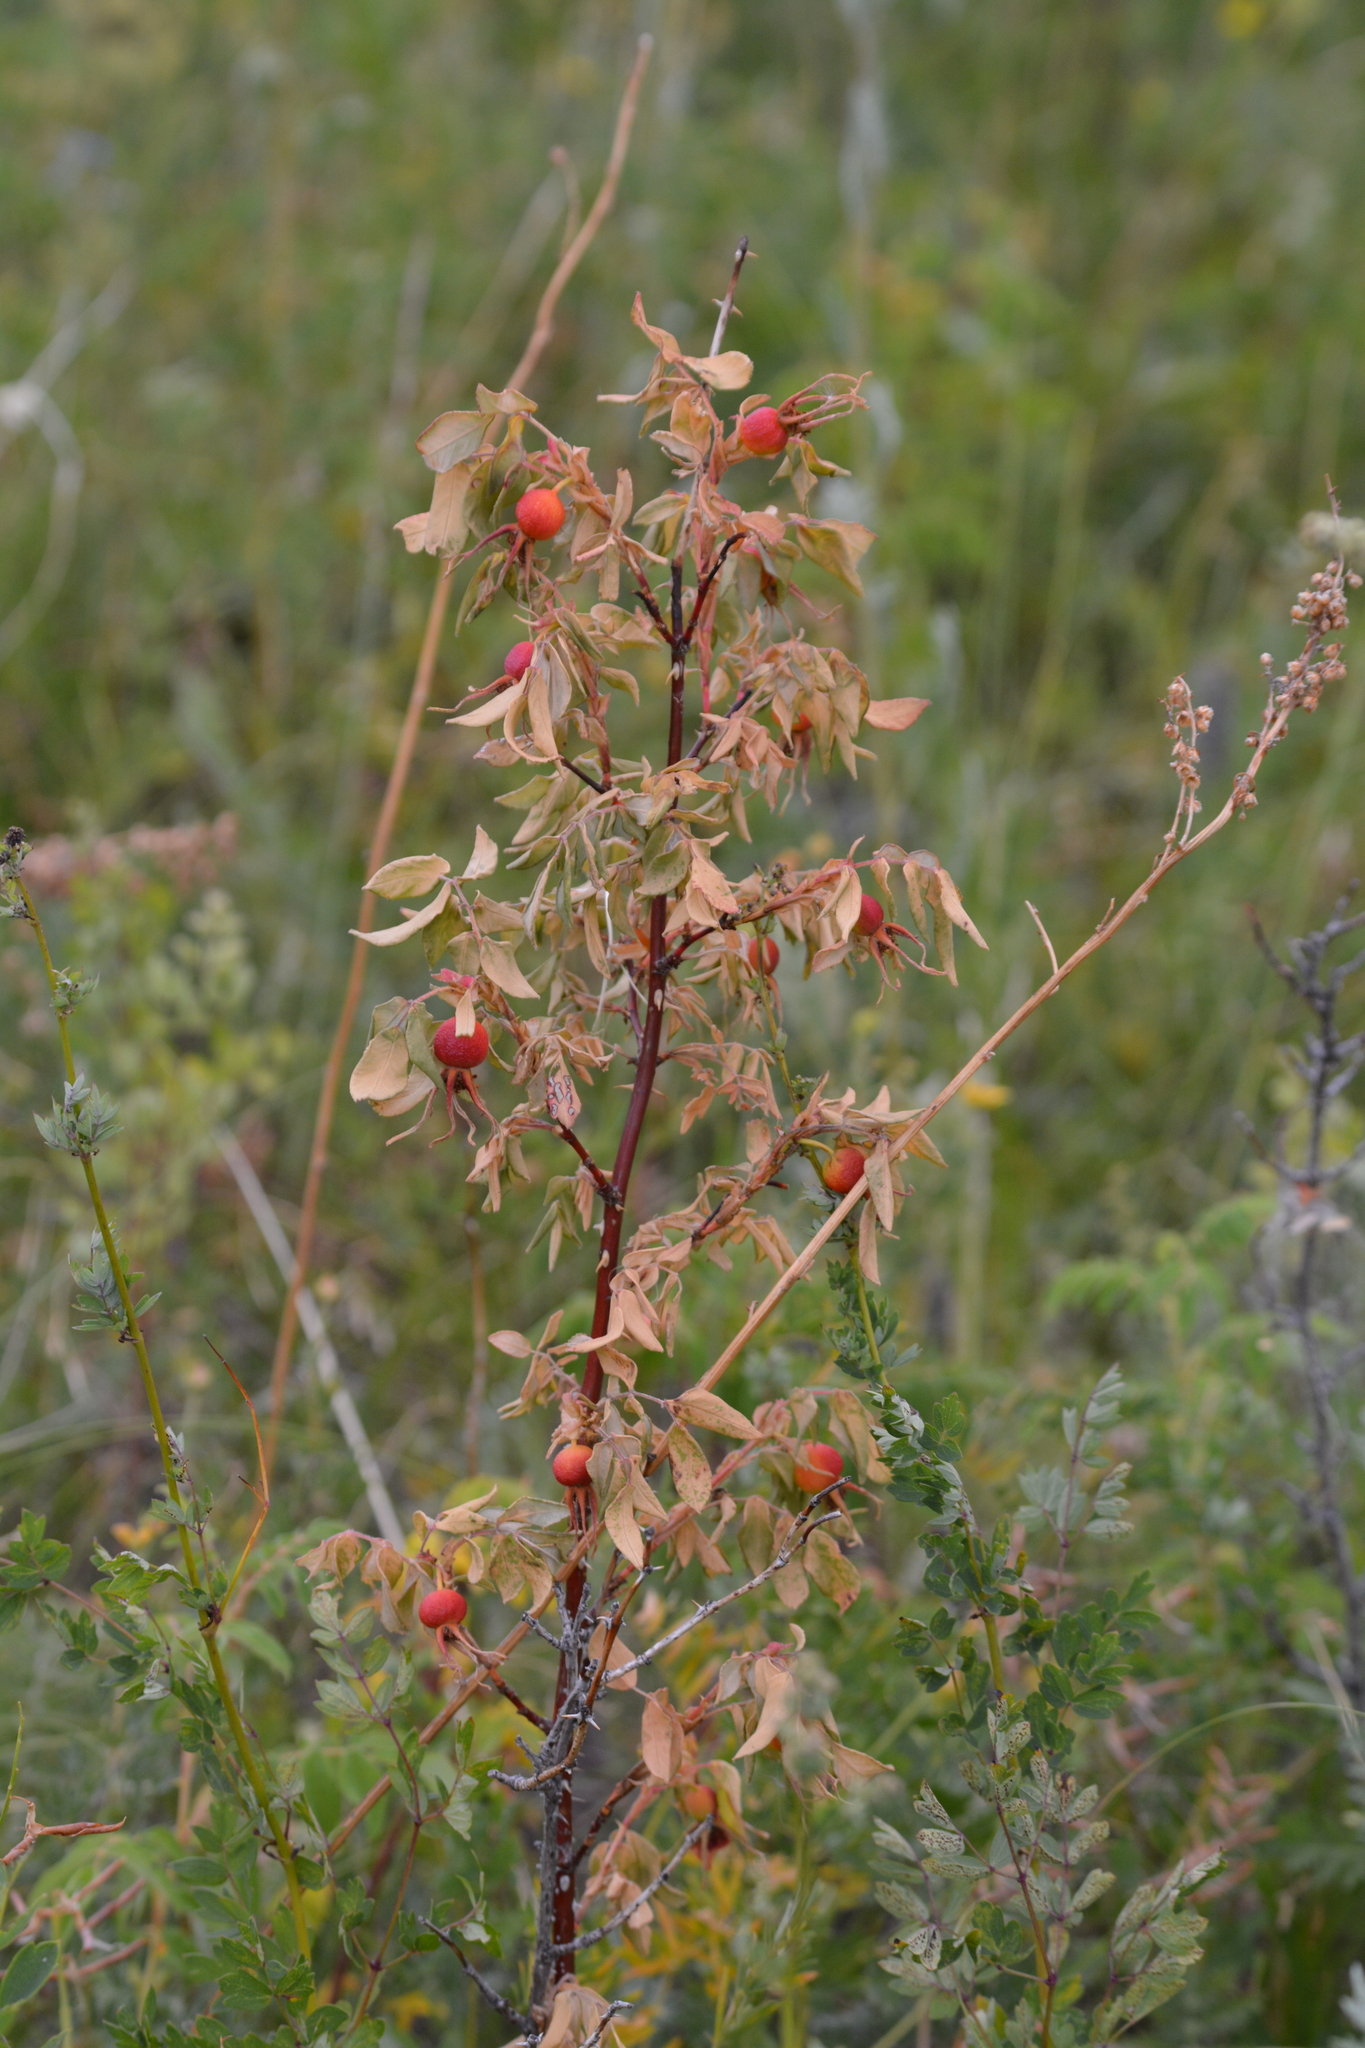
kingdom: Plantae
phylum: Tracheophyta
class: Magnoliopsida
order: Rosales
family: Rosaceae
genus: Rosa
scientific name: Rosa davurica
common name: Amur rose
